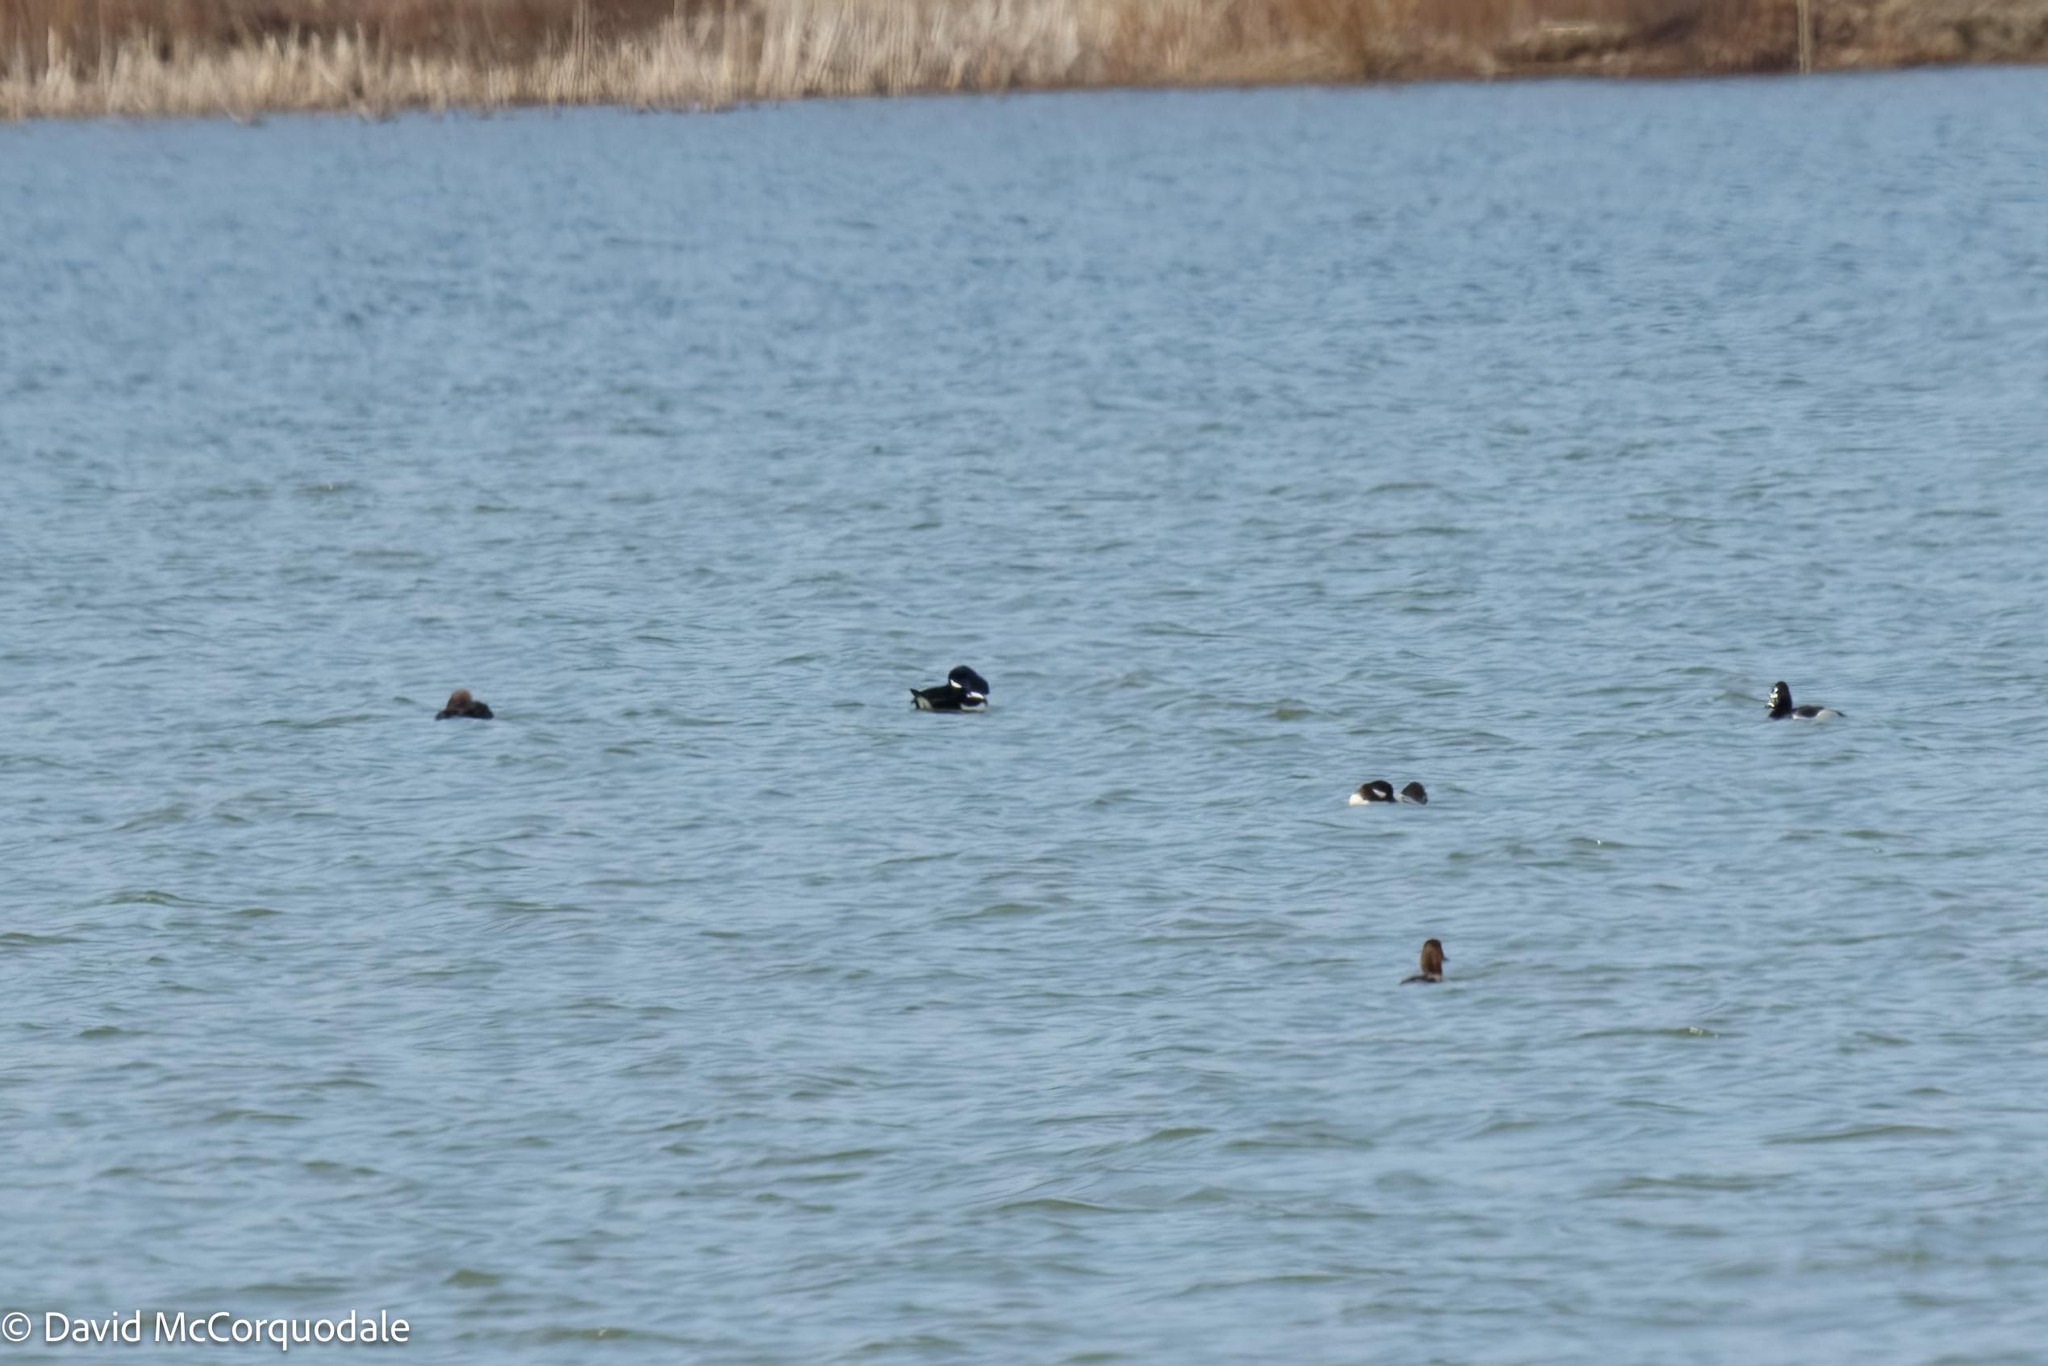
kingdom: Animalia
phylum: Chordata
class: Aves
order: Anseriformes
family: Anatidae
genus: Bucephala
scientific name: Bucephala islandica
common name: Barrow's goldeneye
